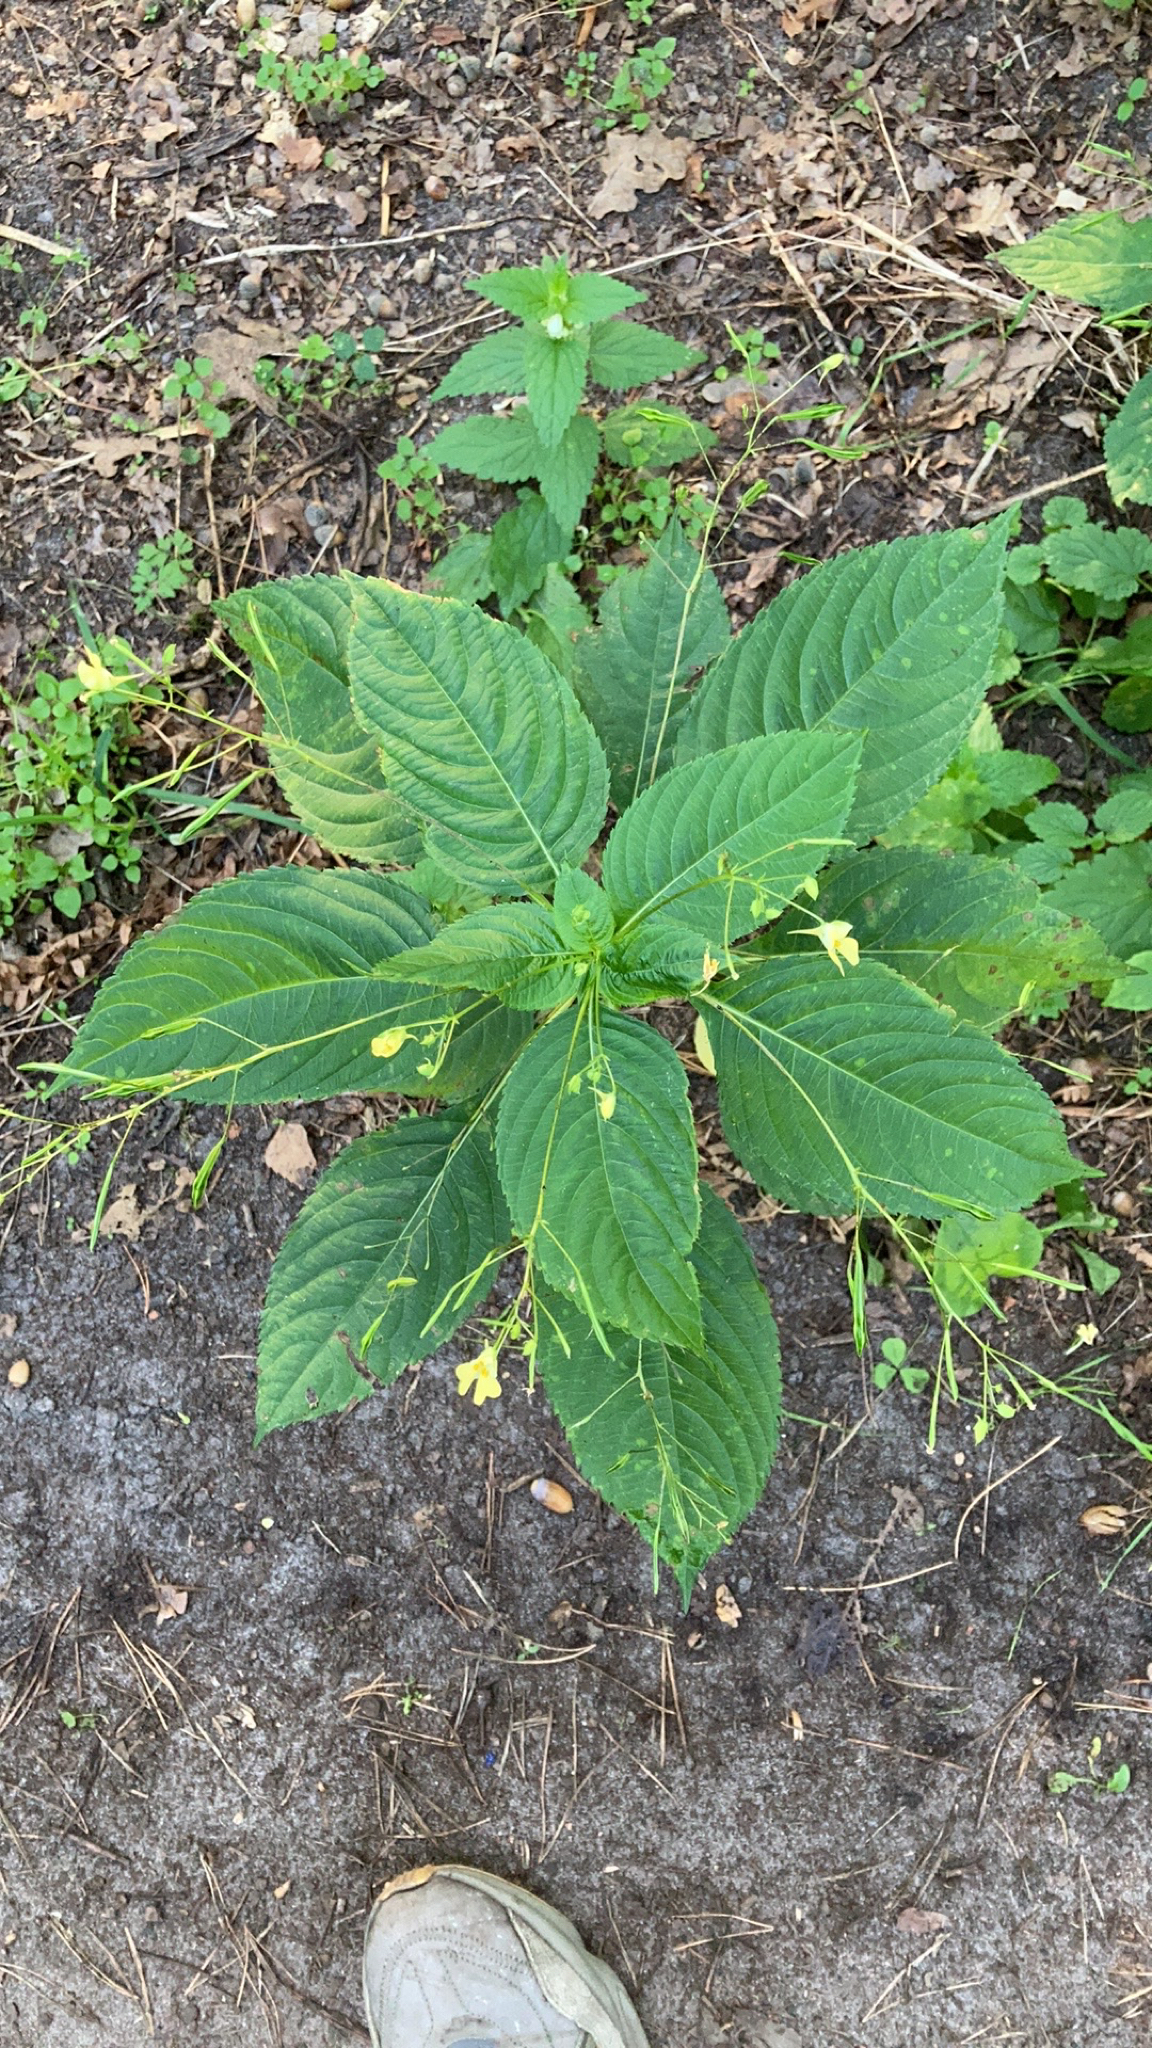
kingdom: Plantae
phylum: Tracheophyta
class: Magnoliopsida
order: Ericales
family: Balsaminaceae
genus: Impatiens
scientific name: Impatiens parviflora
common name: Small balsam
